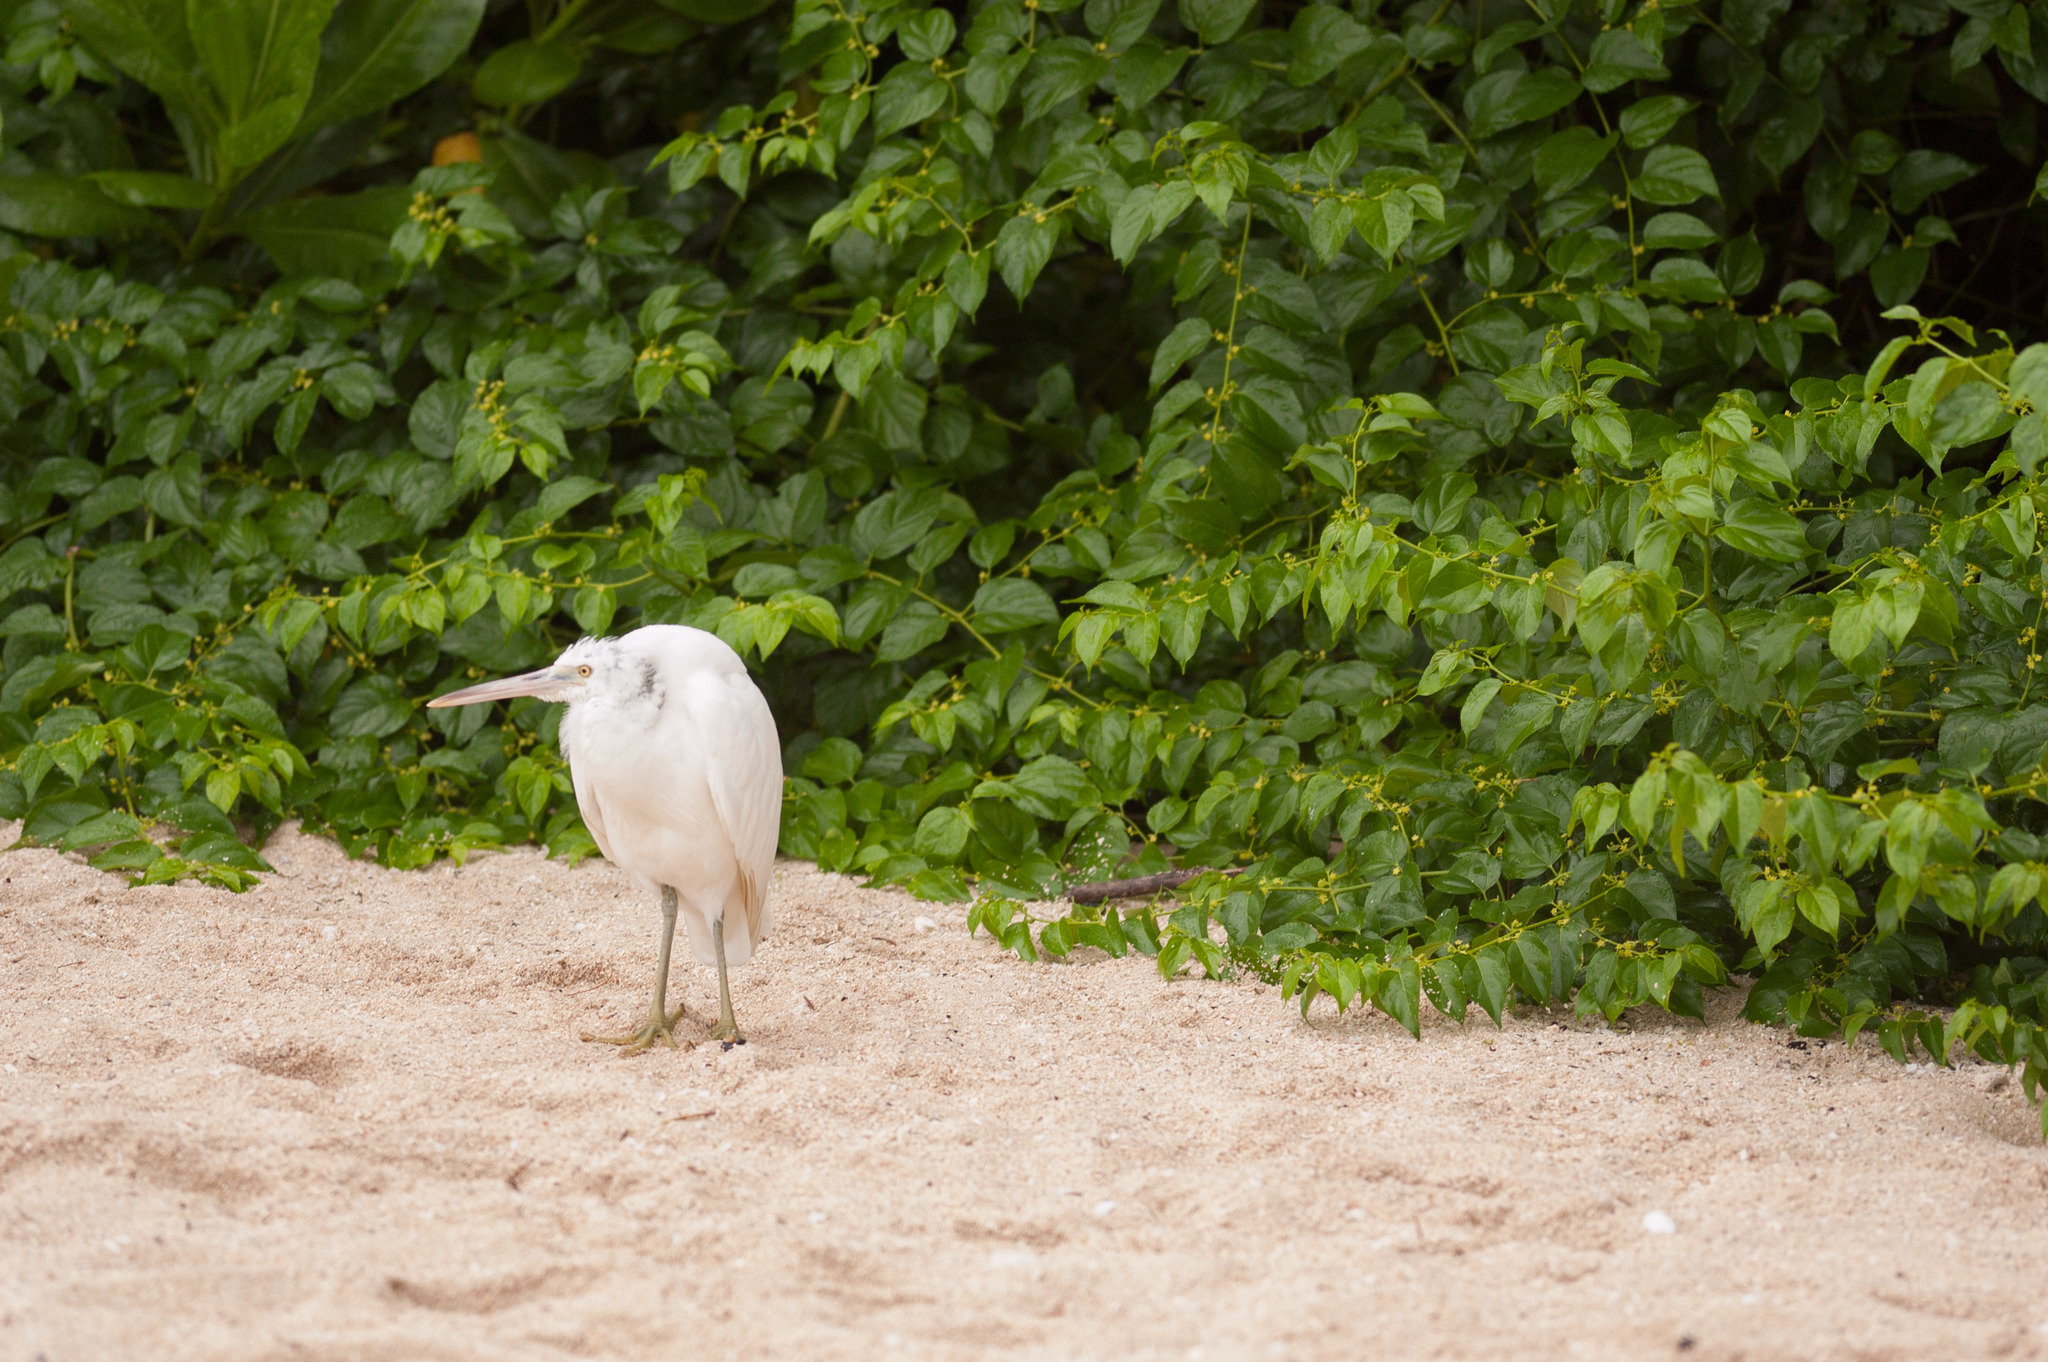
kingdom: Animalia
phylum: Chordata
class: Aves
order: Pelecaniformes
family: Ardeidae
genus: Egretta
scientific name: Egretta sacra
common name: Pacific reef heron
